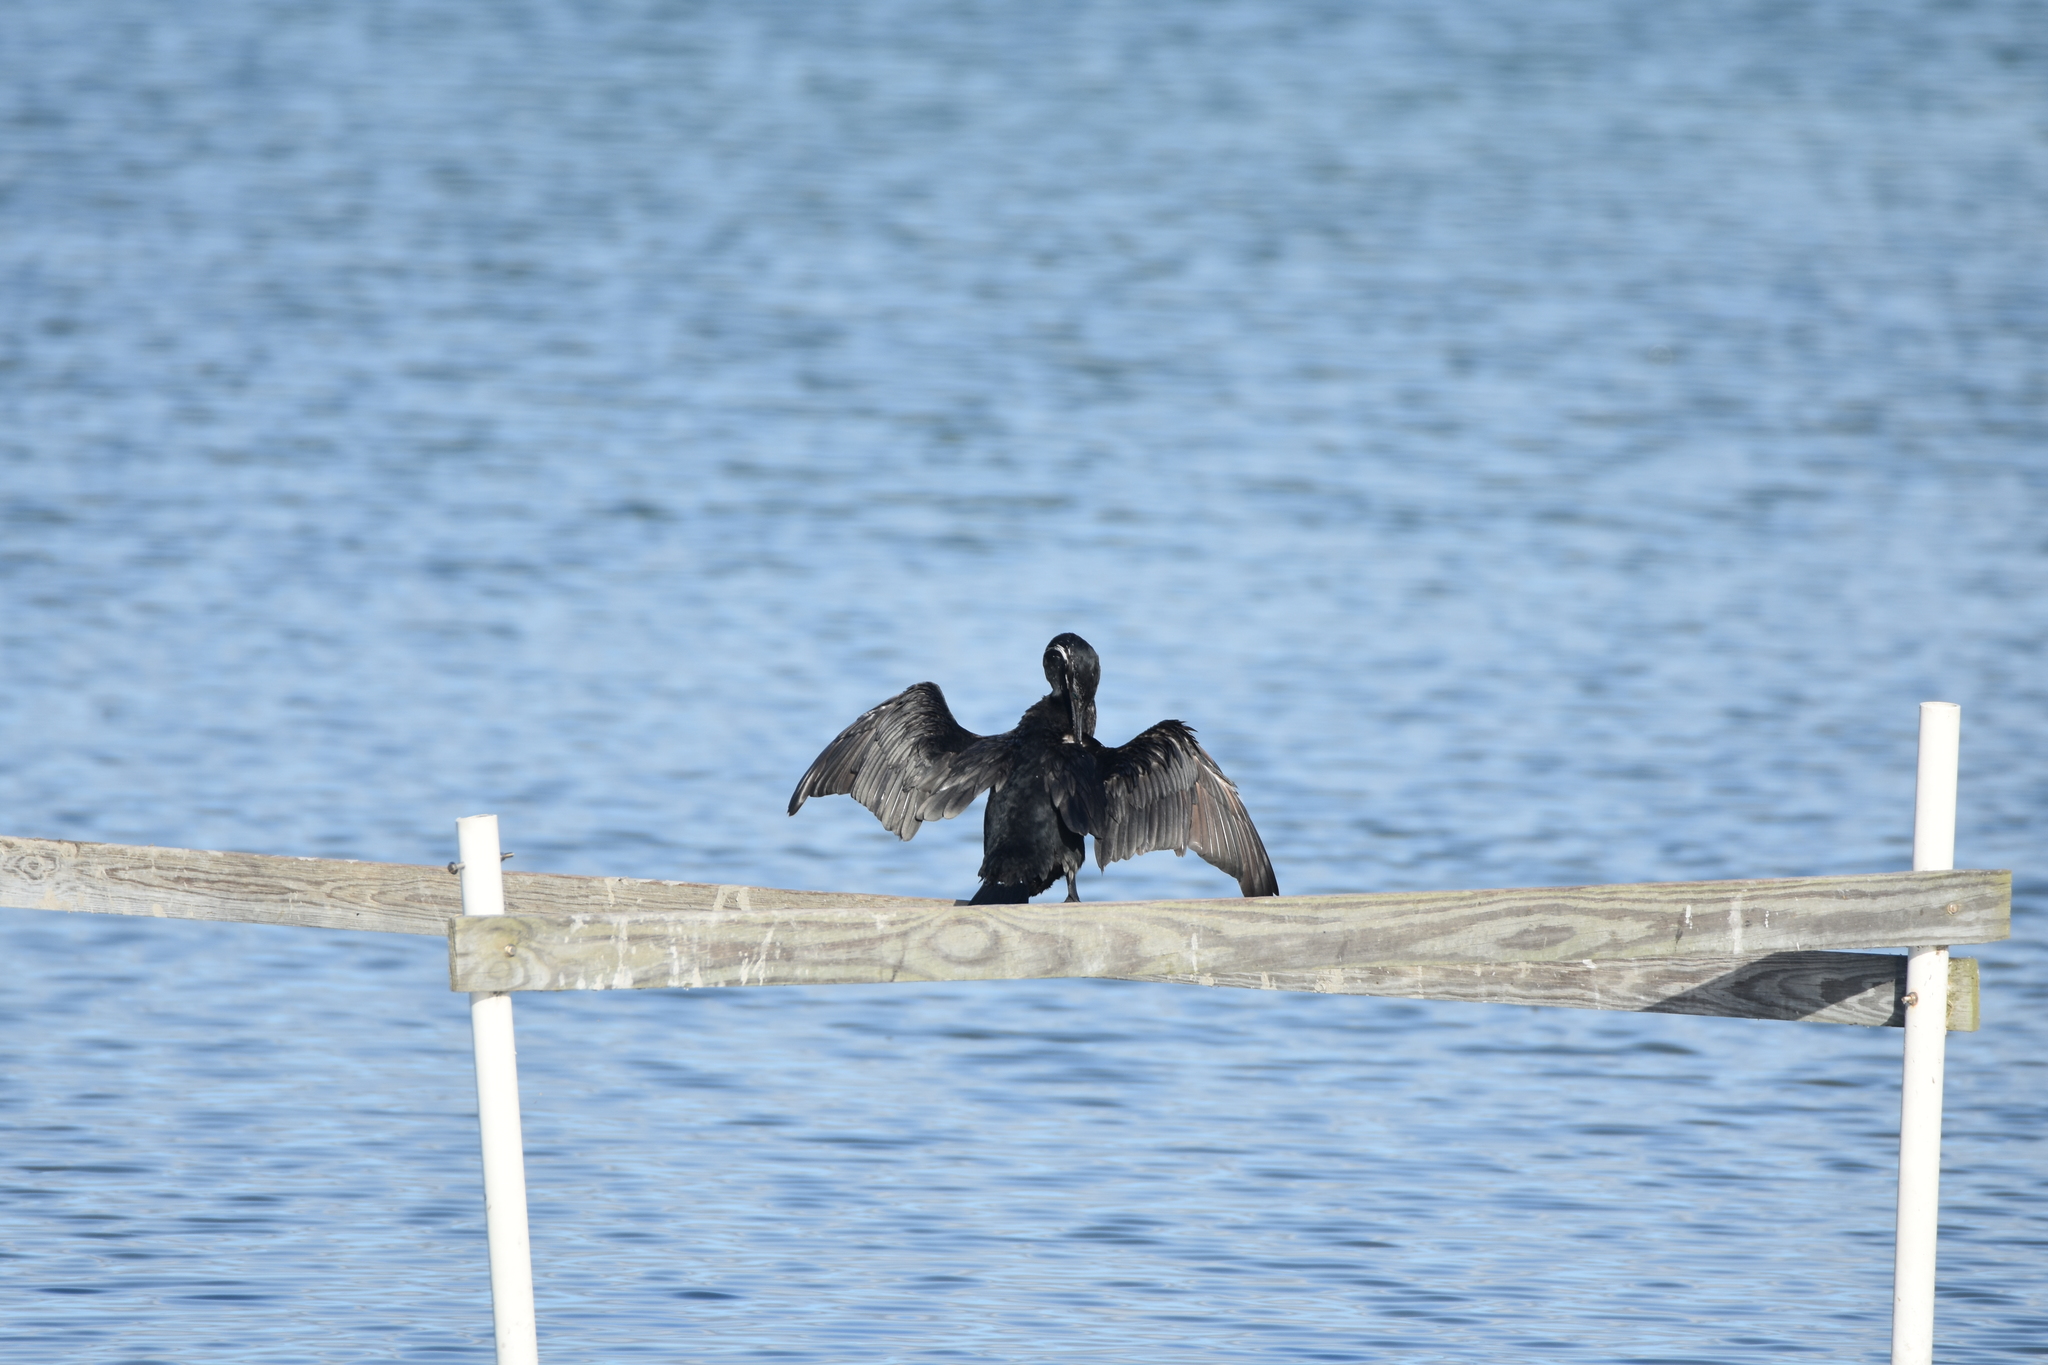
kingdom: Animalia
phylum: Chordata
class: Aves
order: Suliformes
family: Phalacrocoracidae
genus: Phalacrocorax
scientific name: Phalacrocorax brasilianus
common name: Neotropic cormorant
